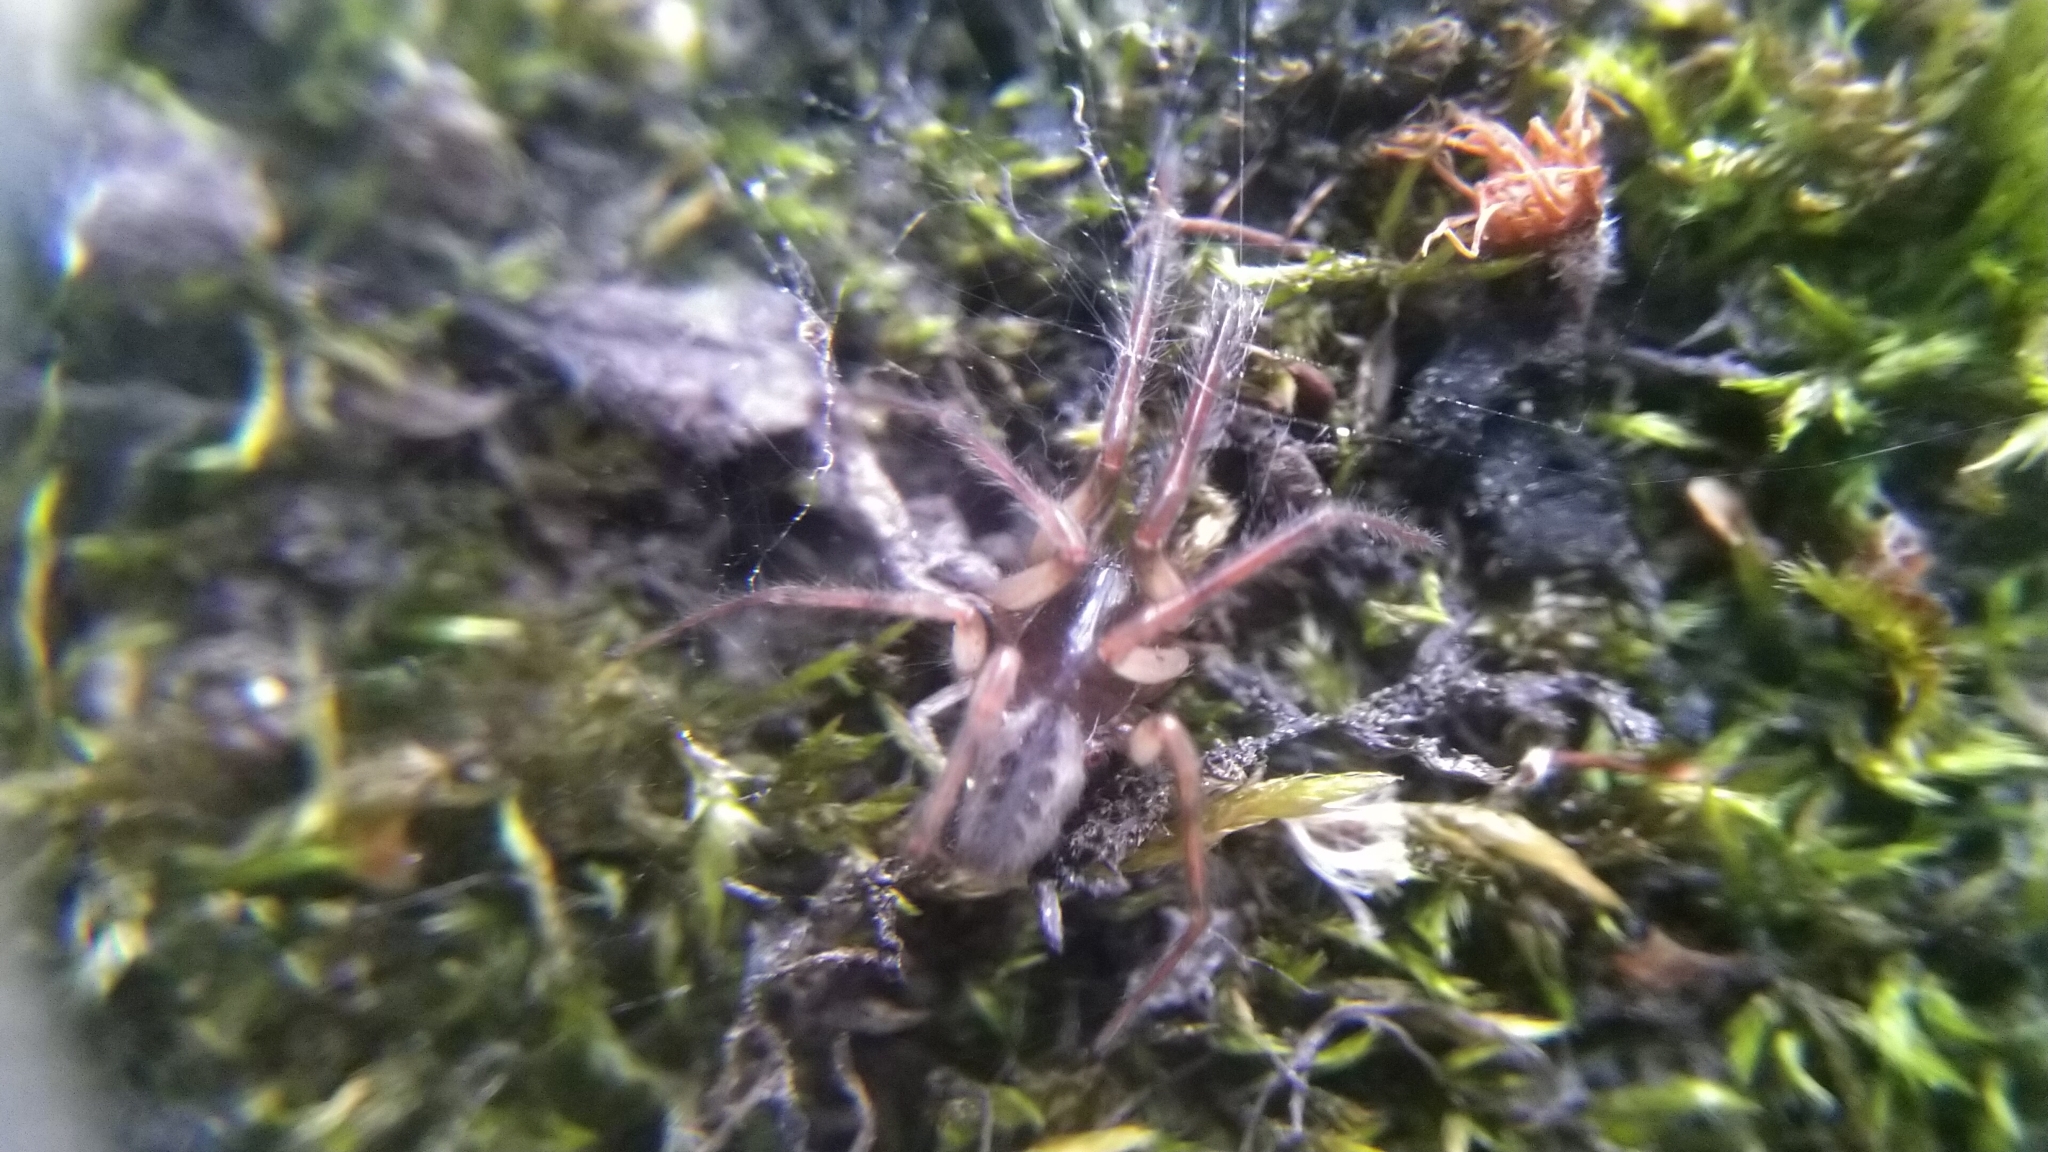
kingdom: Animalia
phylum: Arthropoda
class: Arachnida
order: Araneae
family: Segestriidae
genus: Segestria
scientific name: Segestria senoculata
